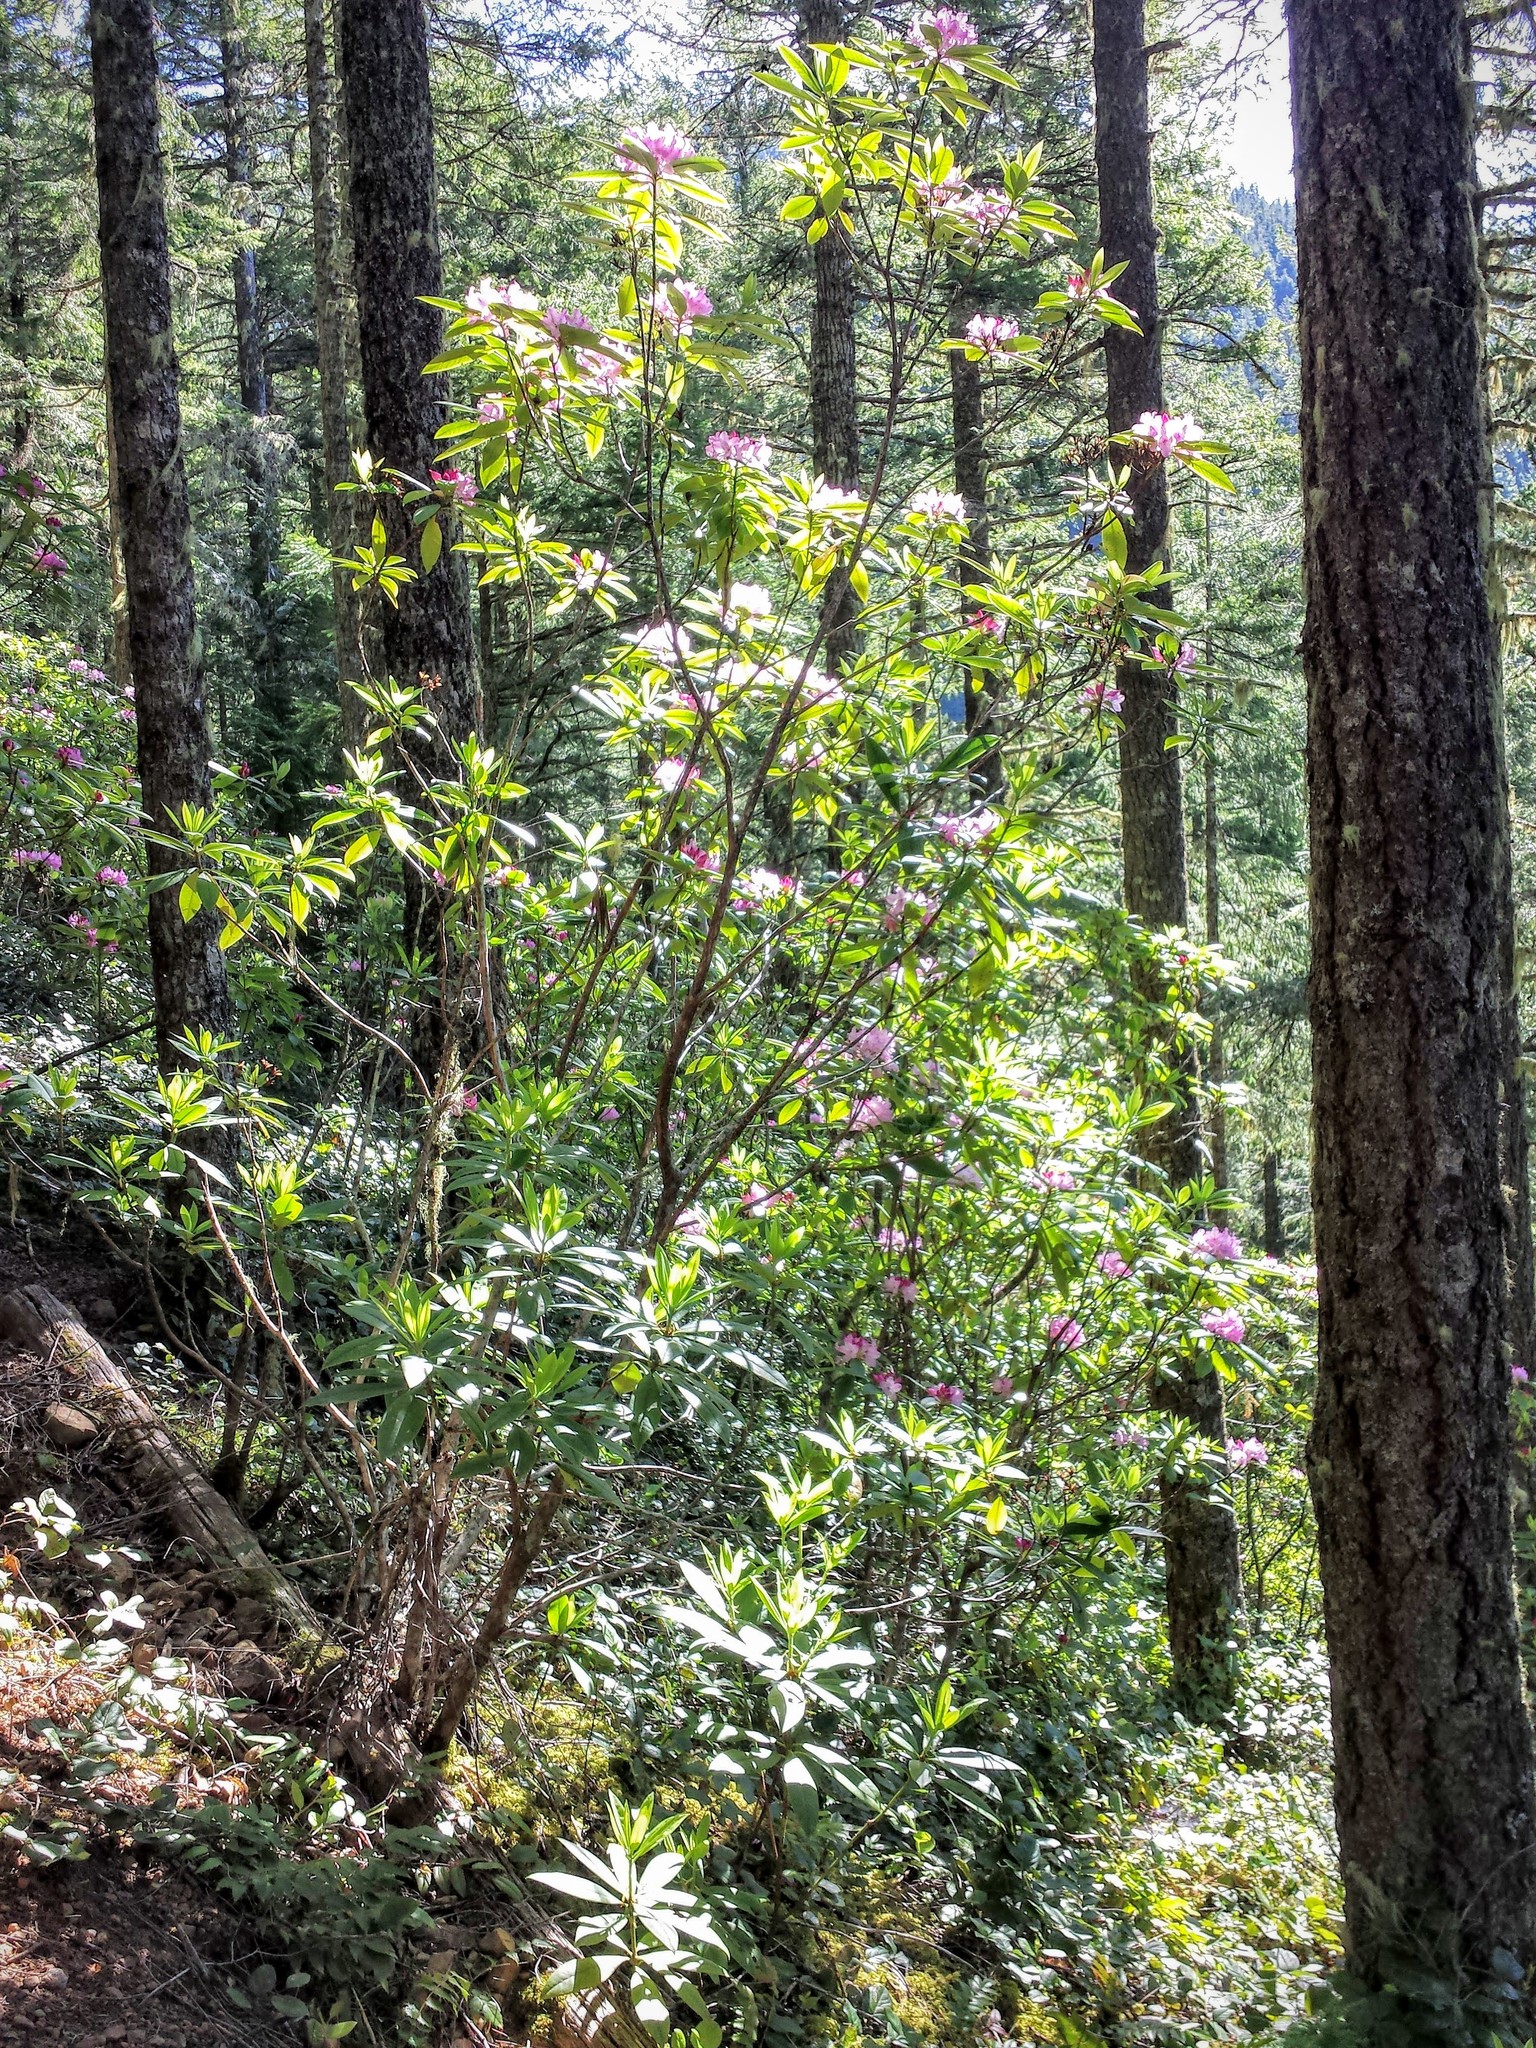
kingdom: Plantae
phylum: Tracheophyta
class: Magnoliopsida
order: Ericales
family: Ericaceae
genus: Rhododendron
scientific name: Rhododendron macrophyllum
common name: California rose bay
